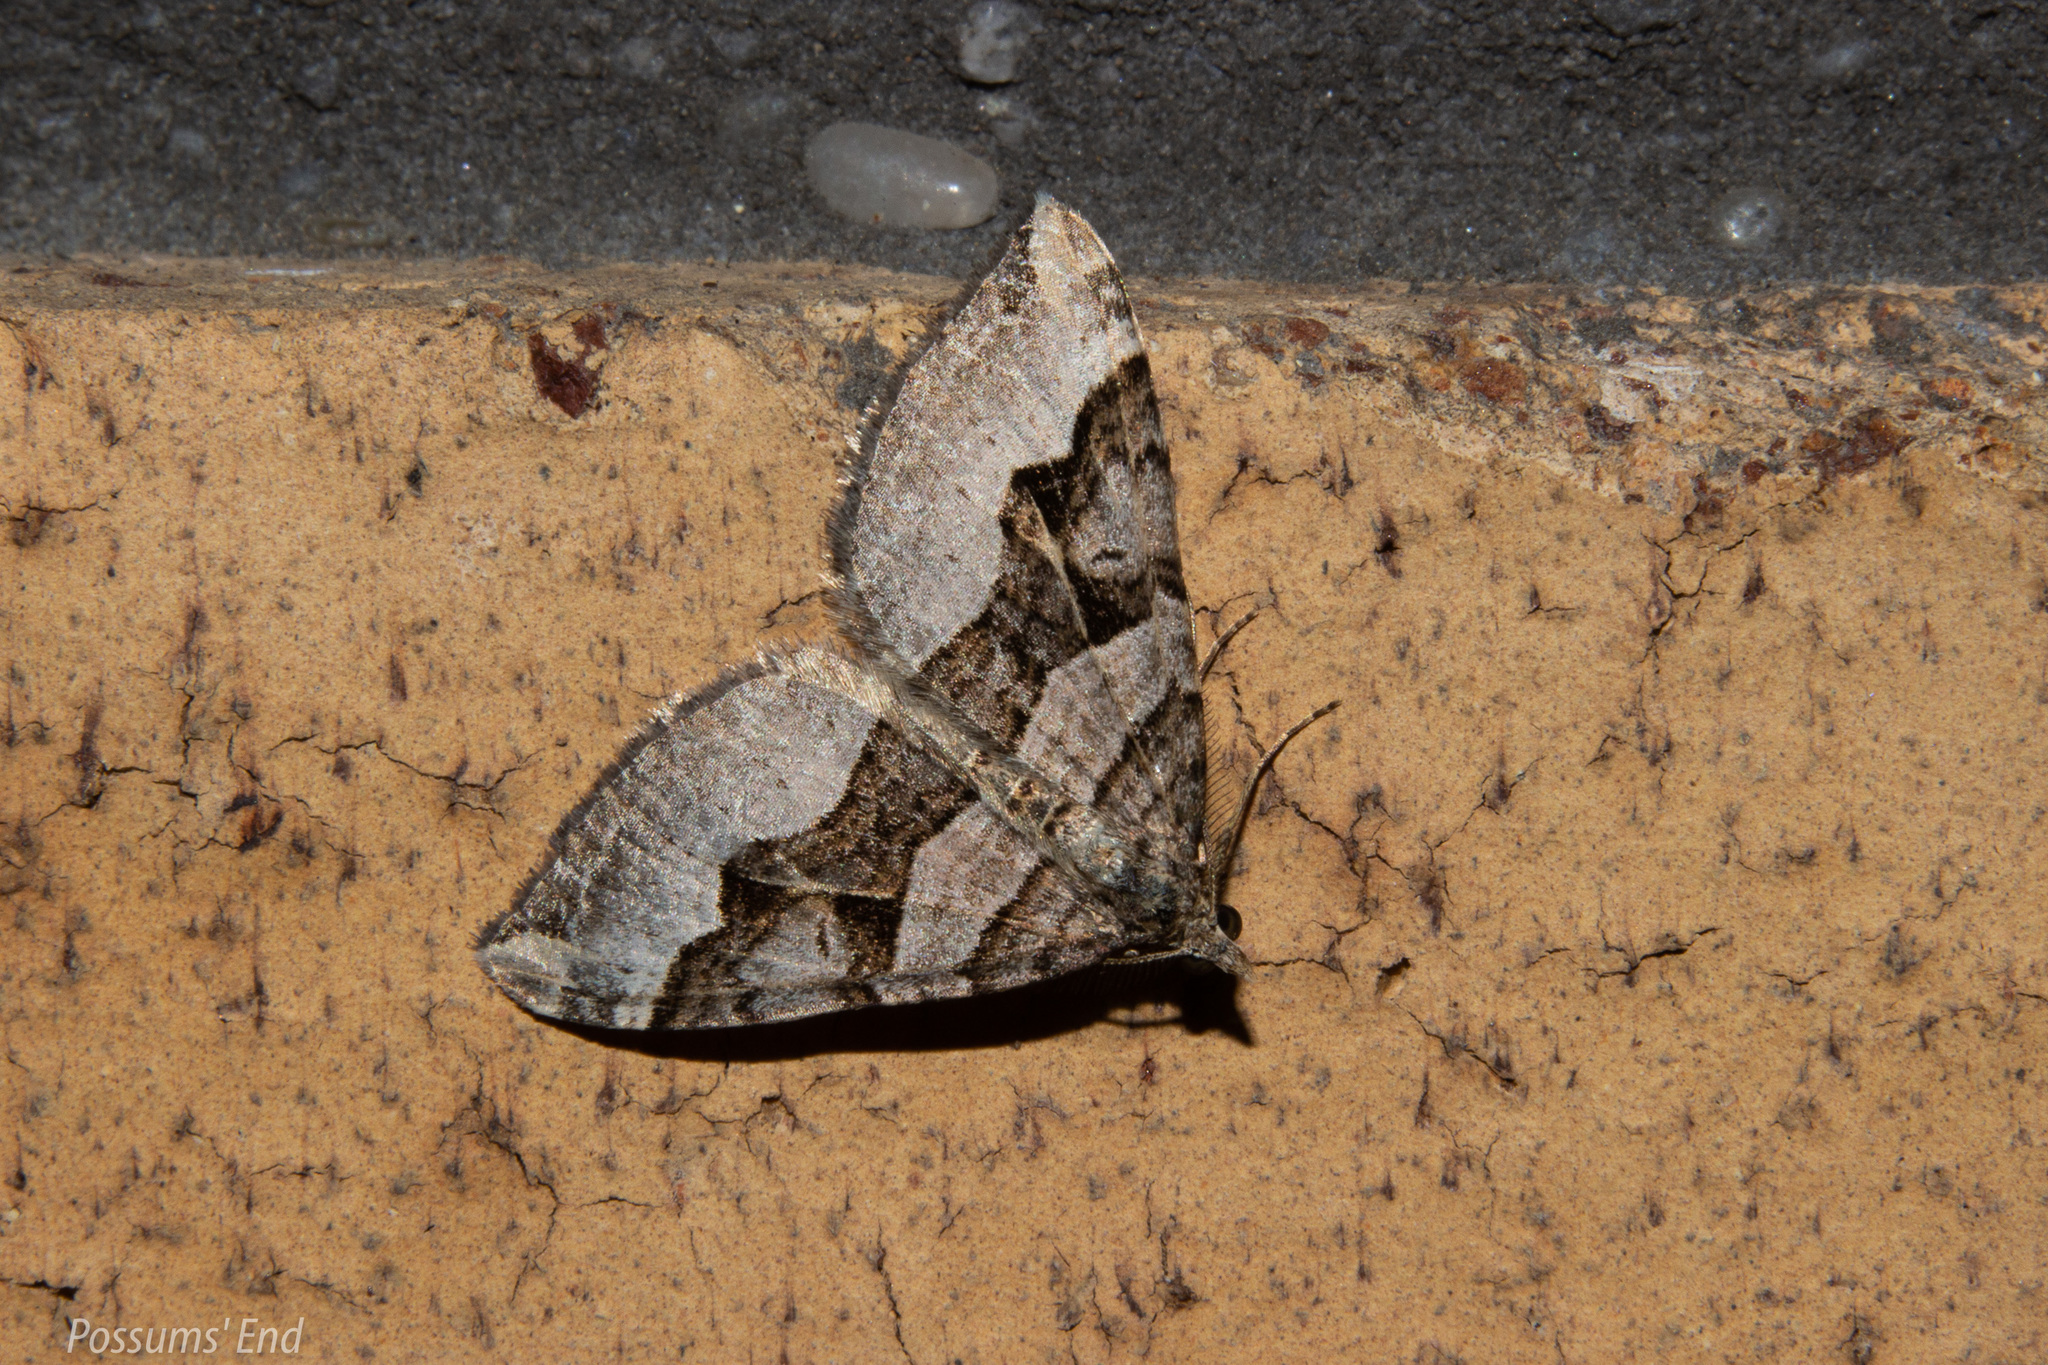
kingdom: Animalia
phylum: Arthropoda
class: Insecta
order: Lepidoptera
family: Geometridae
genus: Xanthorhoe
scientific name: Xanthorhoe semifissata
